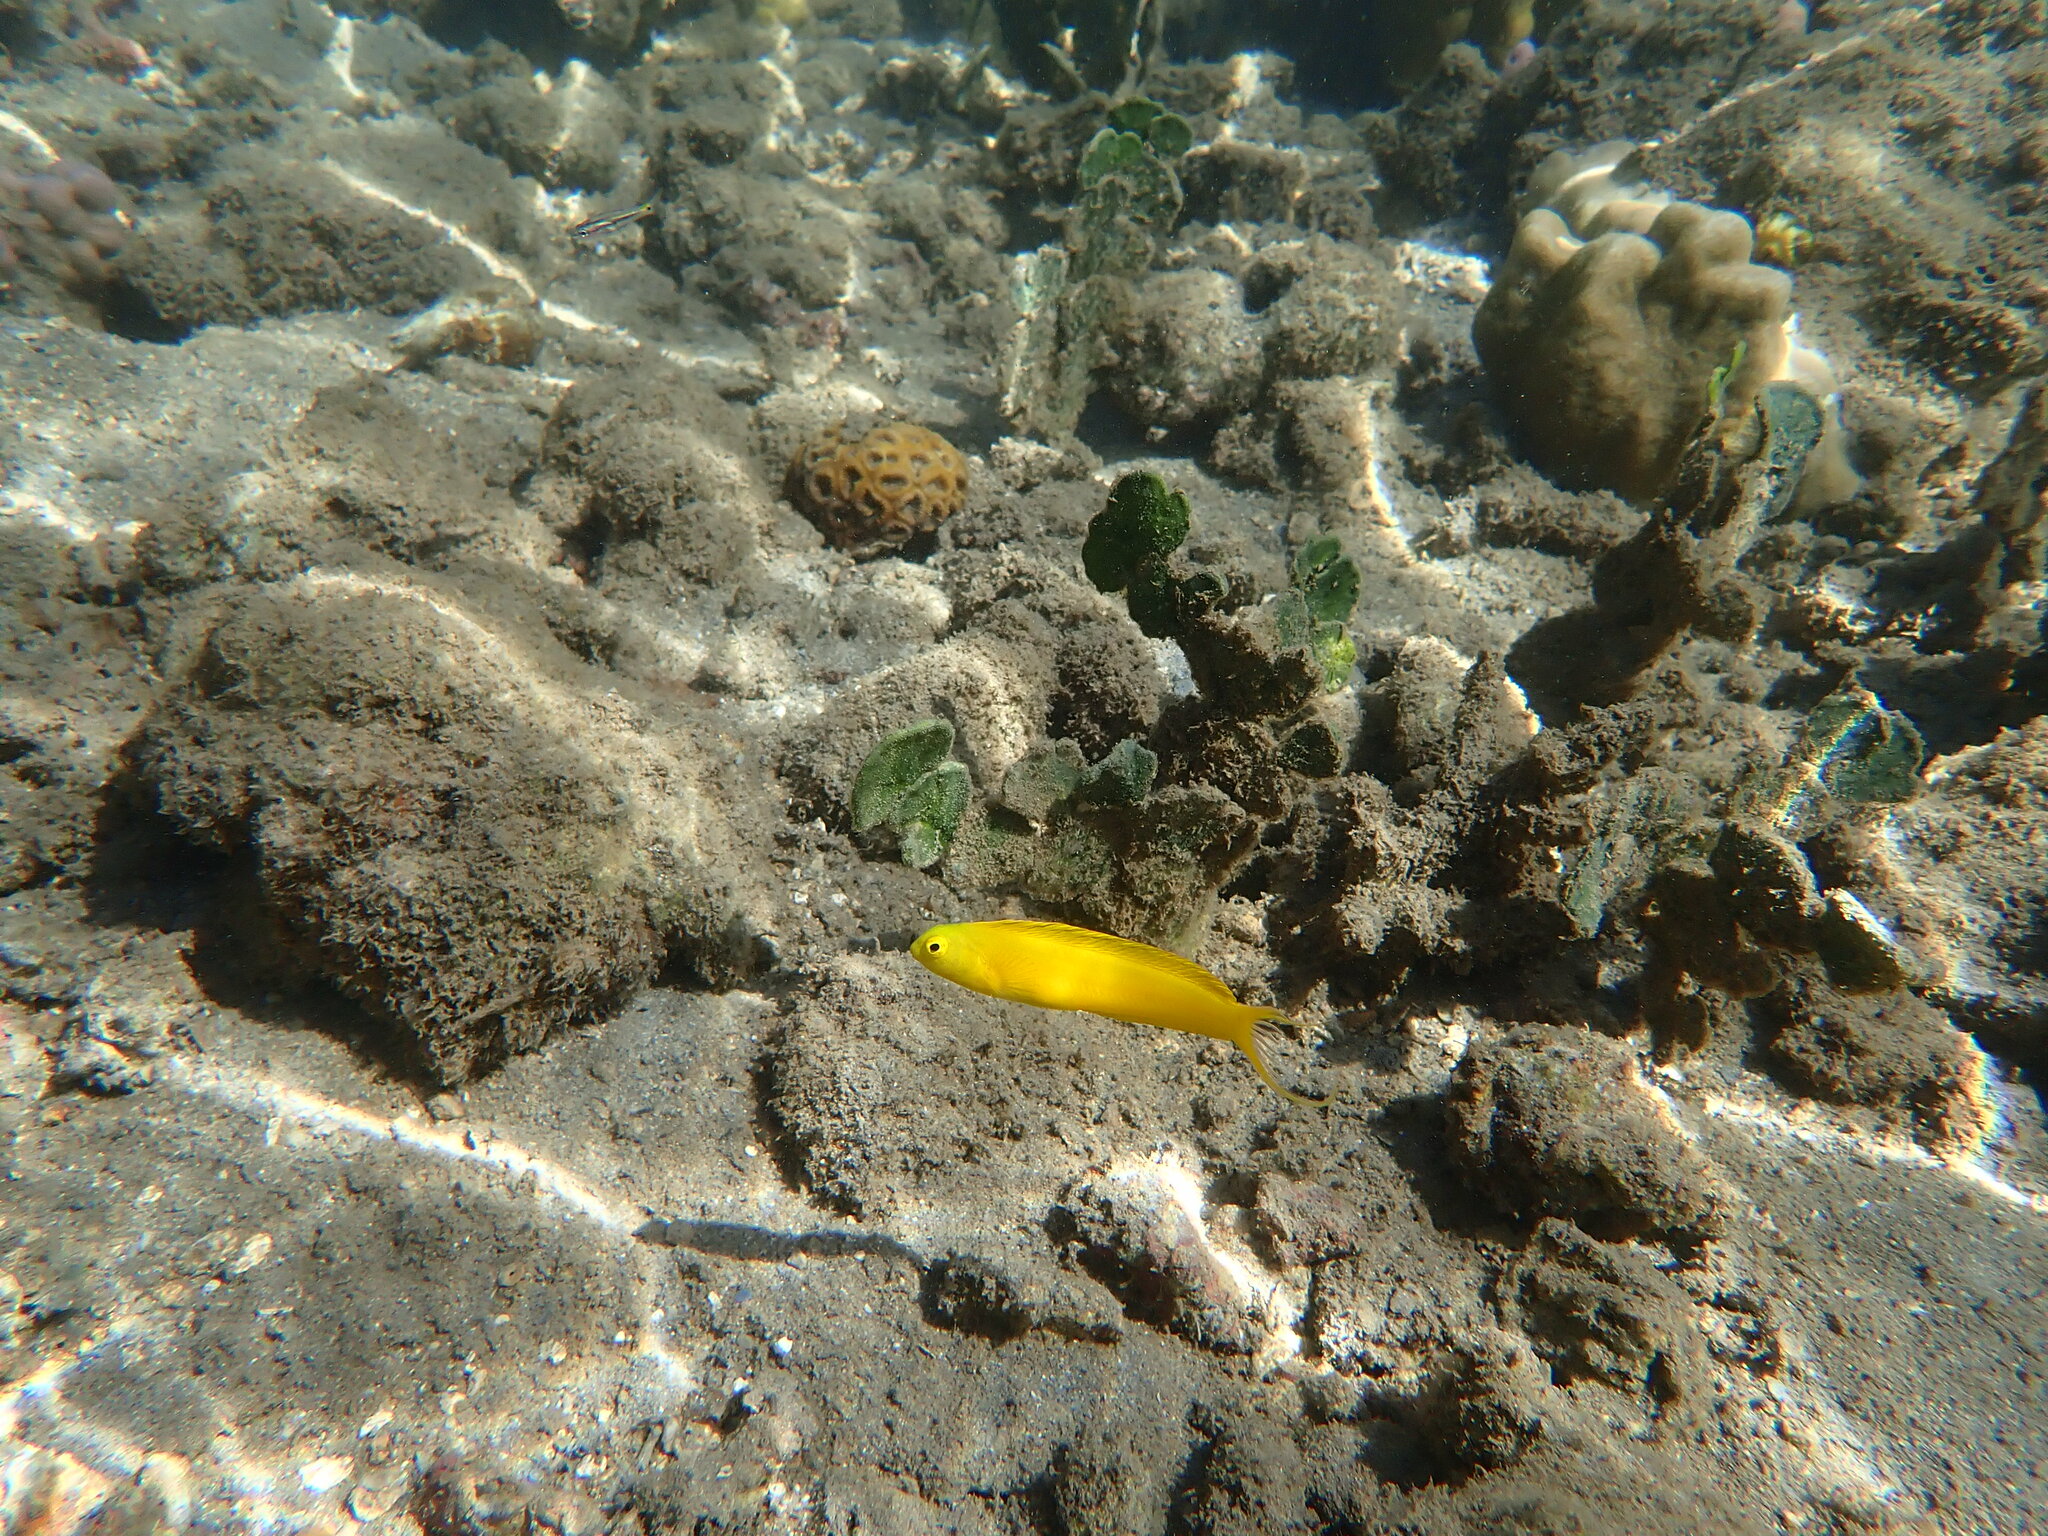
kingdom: Animalia
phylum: Chordata
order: Perciformes
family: Blenniidae
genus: Meiacanthus
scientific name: Meiacanthus oualanensis
